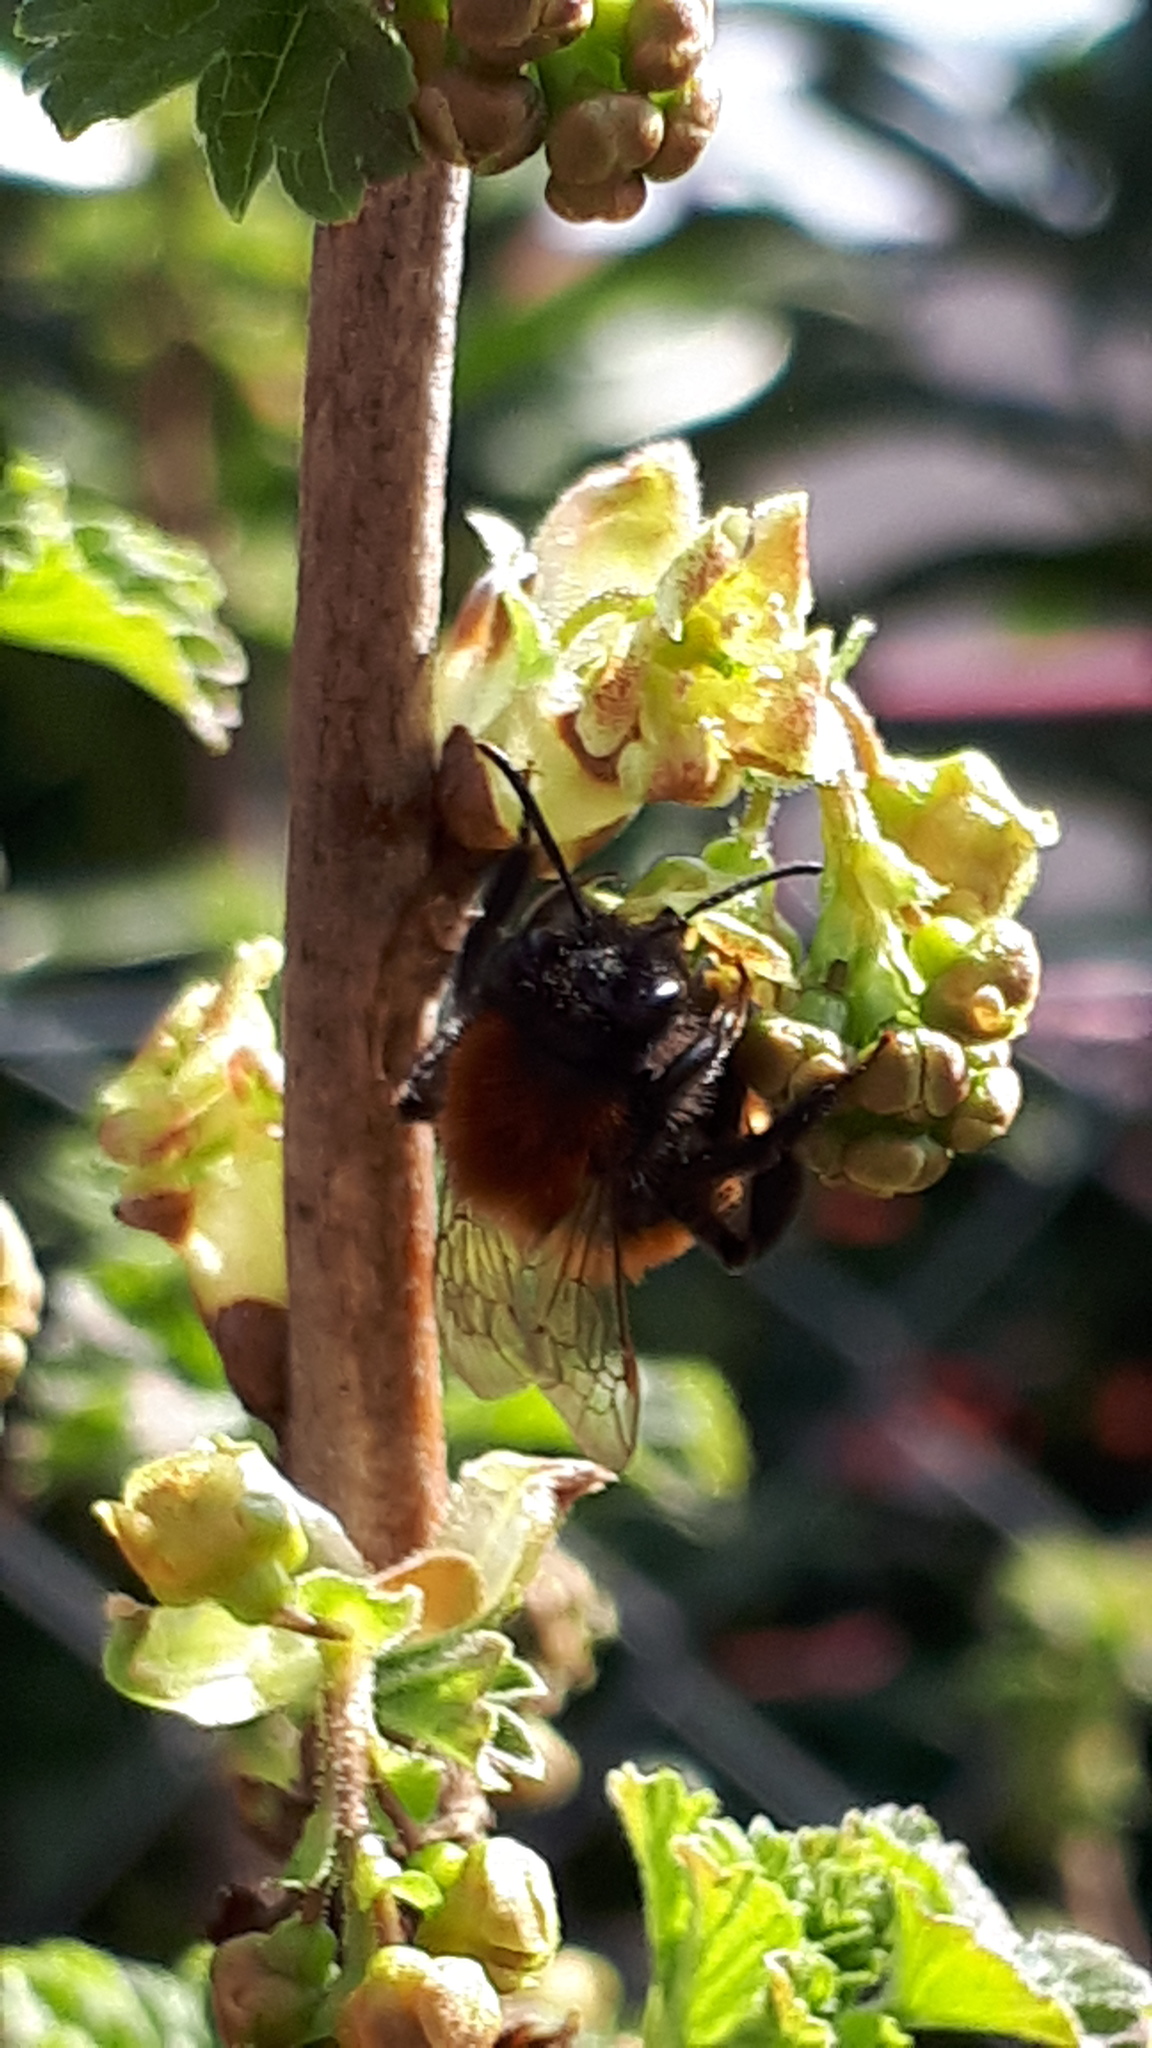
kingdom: Animalia
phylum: Arthropoda
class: Insecta
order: Hymenoptera
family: Andrenidae
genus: Andrena
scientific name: Andrena fulva
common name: Tawny mining bee
